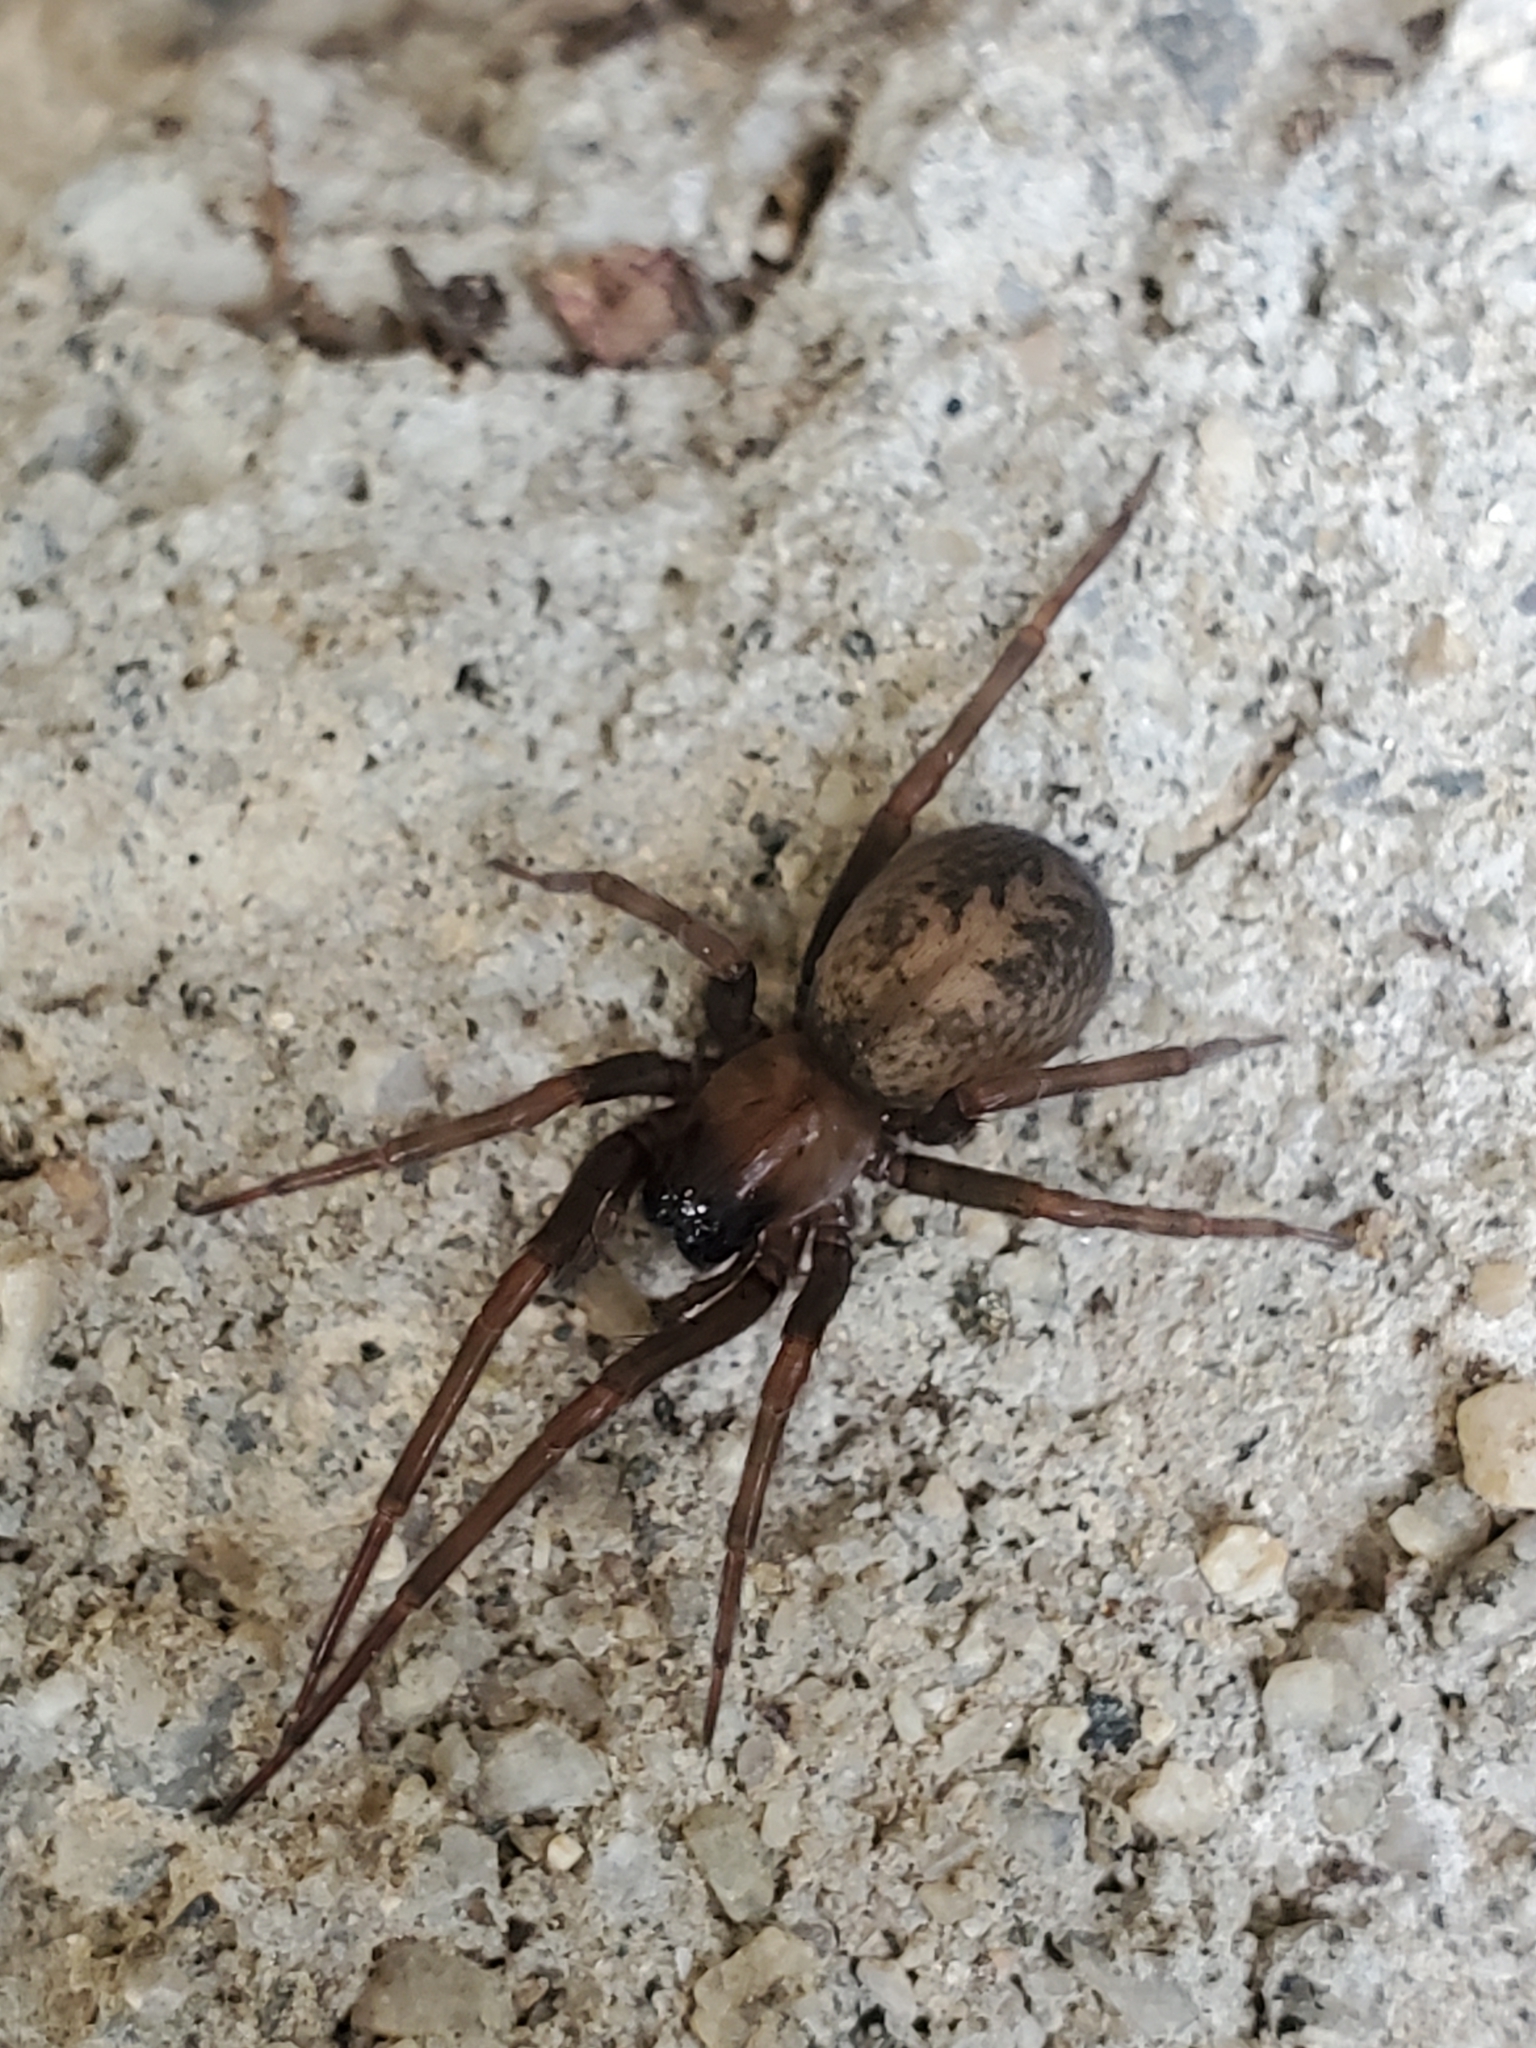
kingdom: Animalia
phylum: Arthropoda
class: Arachnida
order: Araneae
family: Desidae
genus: Metaltella
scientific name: Metaltella simoni
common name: Cribellate spider
